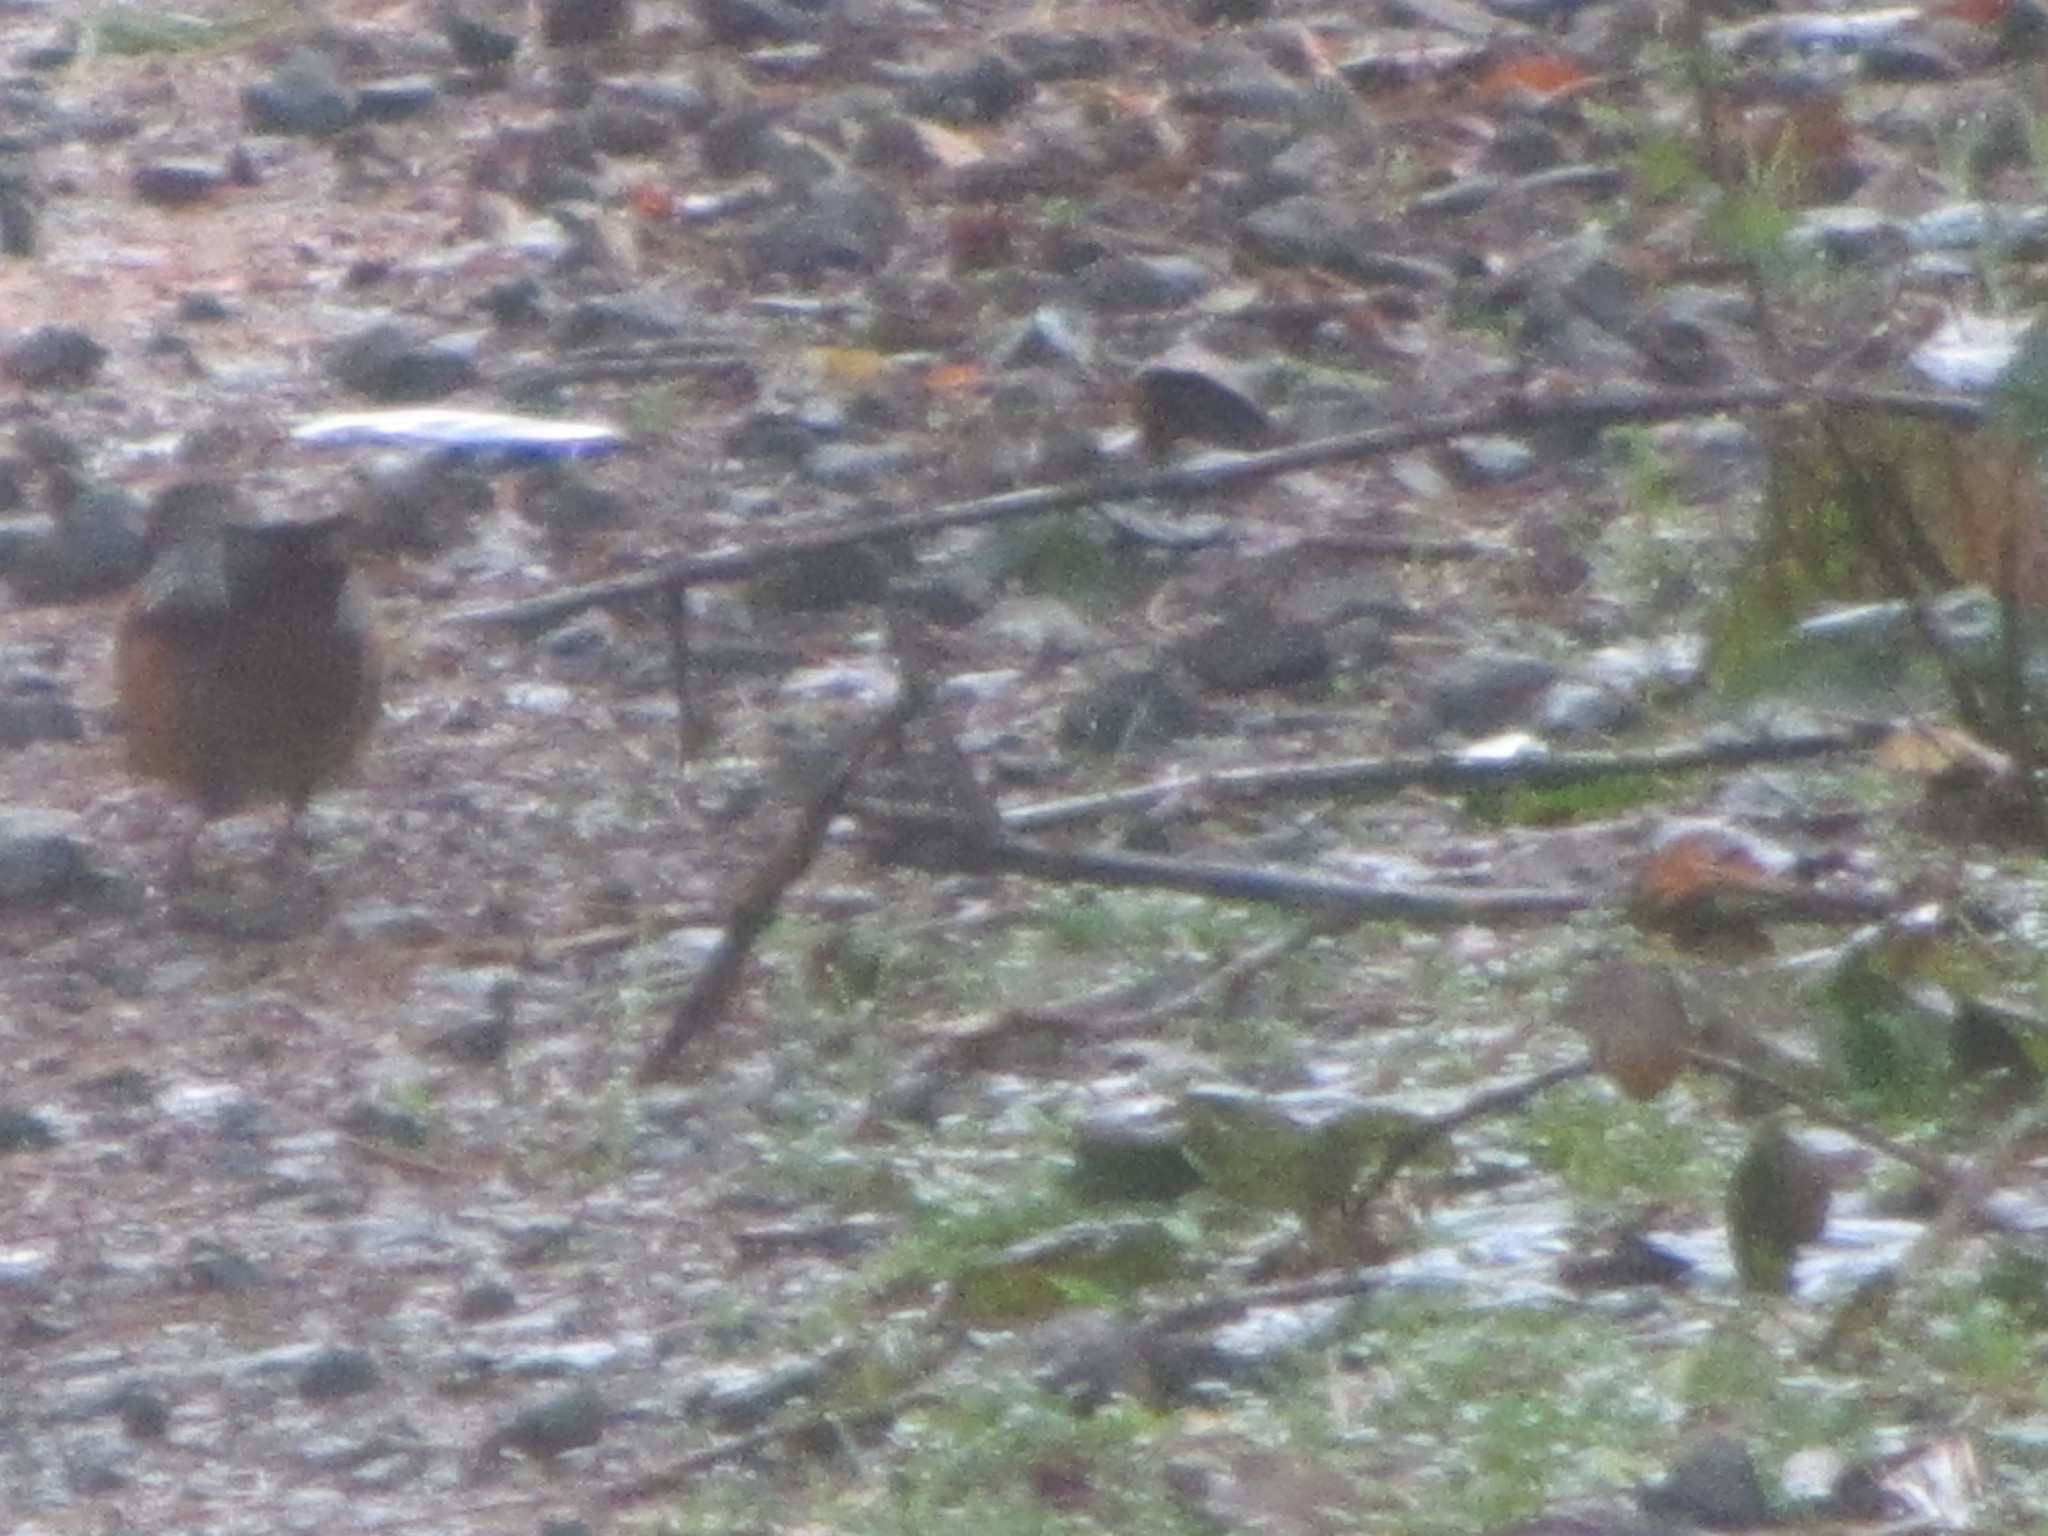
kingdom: Animalia
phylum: Chordata
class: Aves
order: Passeriformes
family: Passerellidae
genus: Pipilo
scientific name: Pipilo maculatus
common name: Spotted towhee
